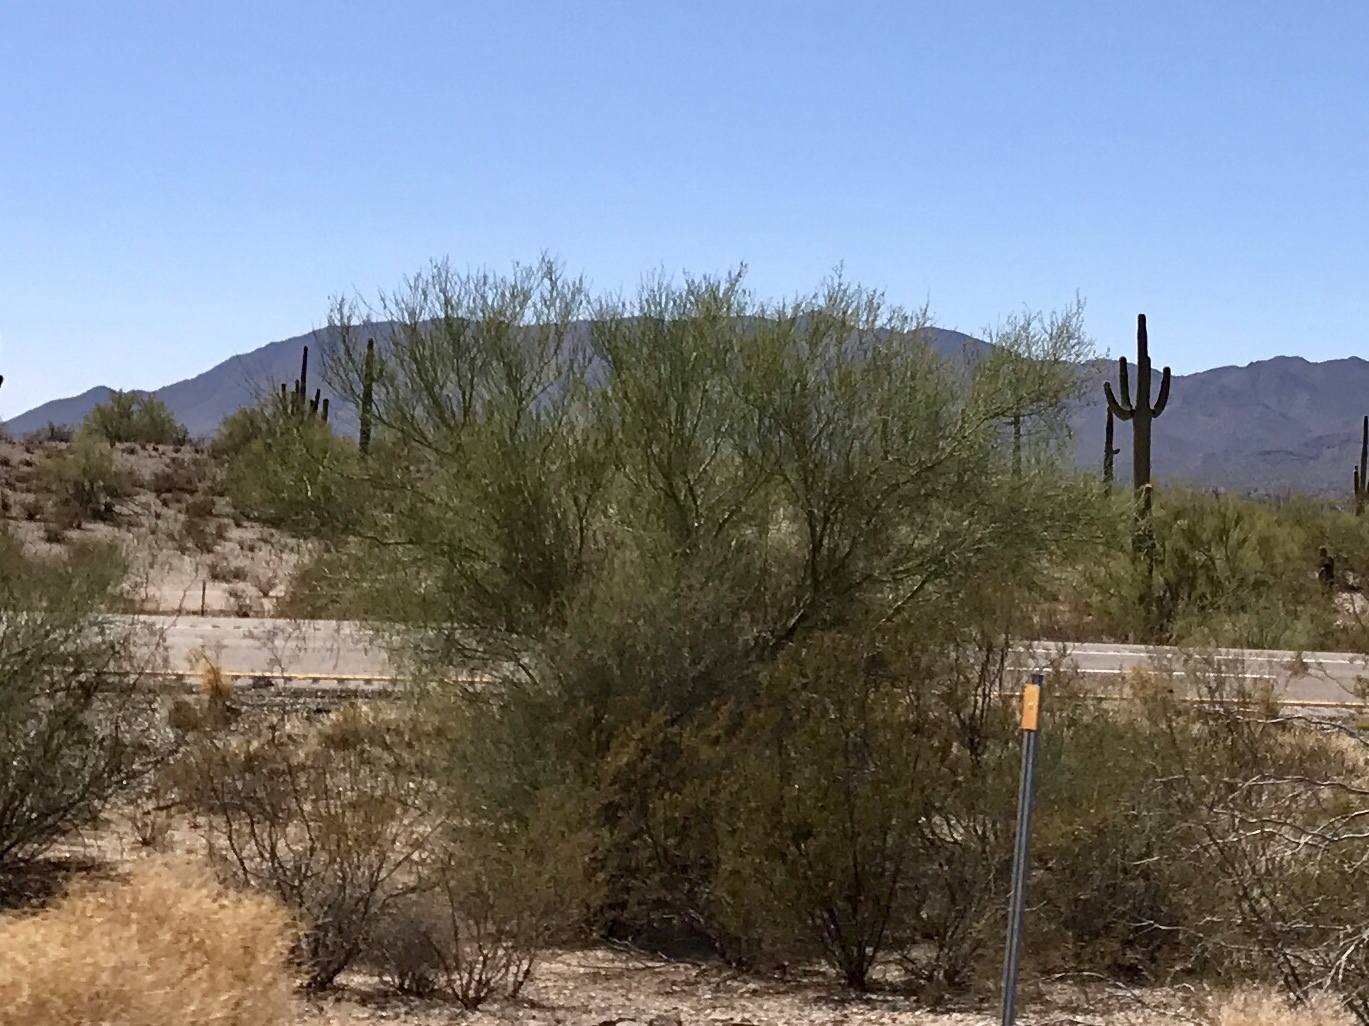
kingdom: Plantae
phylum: Tracheophyta
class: Magnoliopsida
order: Fabales
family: Fabaceae
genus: Parkinsonia
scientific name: Parkinsonia florida
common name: Blue paloverde
